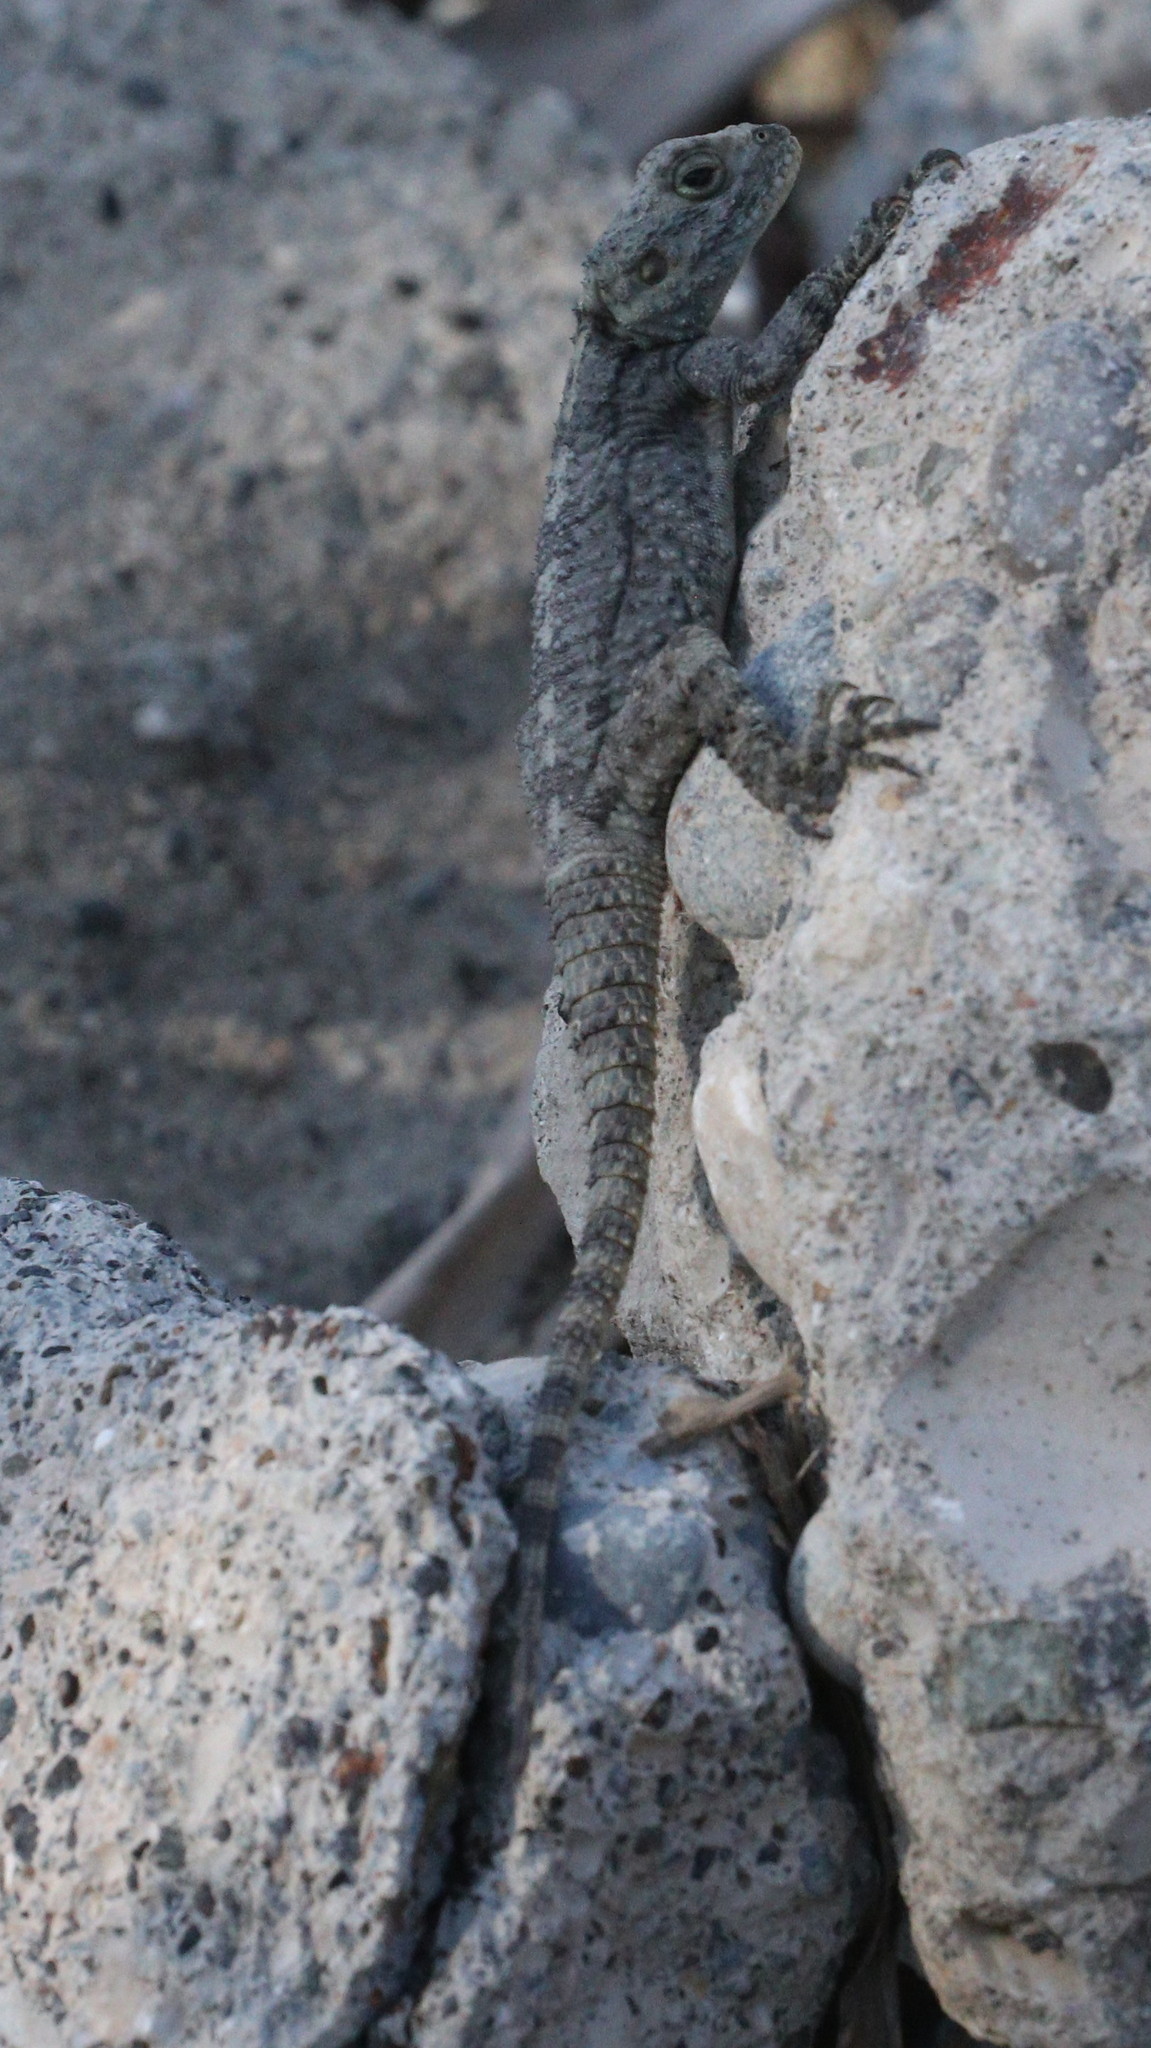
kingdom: Animalia
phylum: Chordata
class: Squamata
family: Agamidae
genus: Stellagama
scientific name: Stellagama stellio
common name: Starred agama
